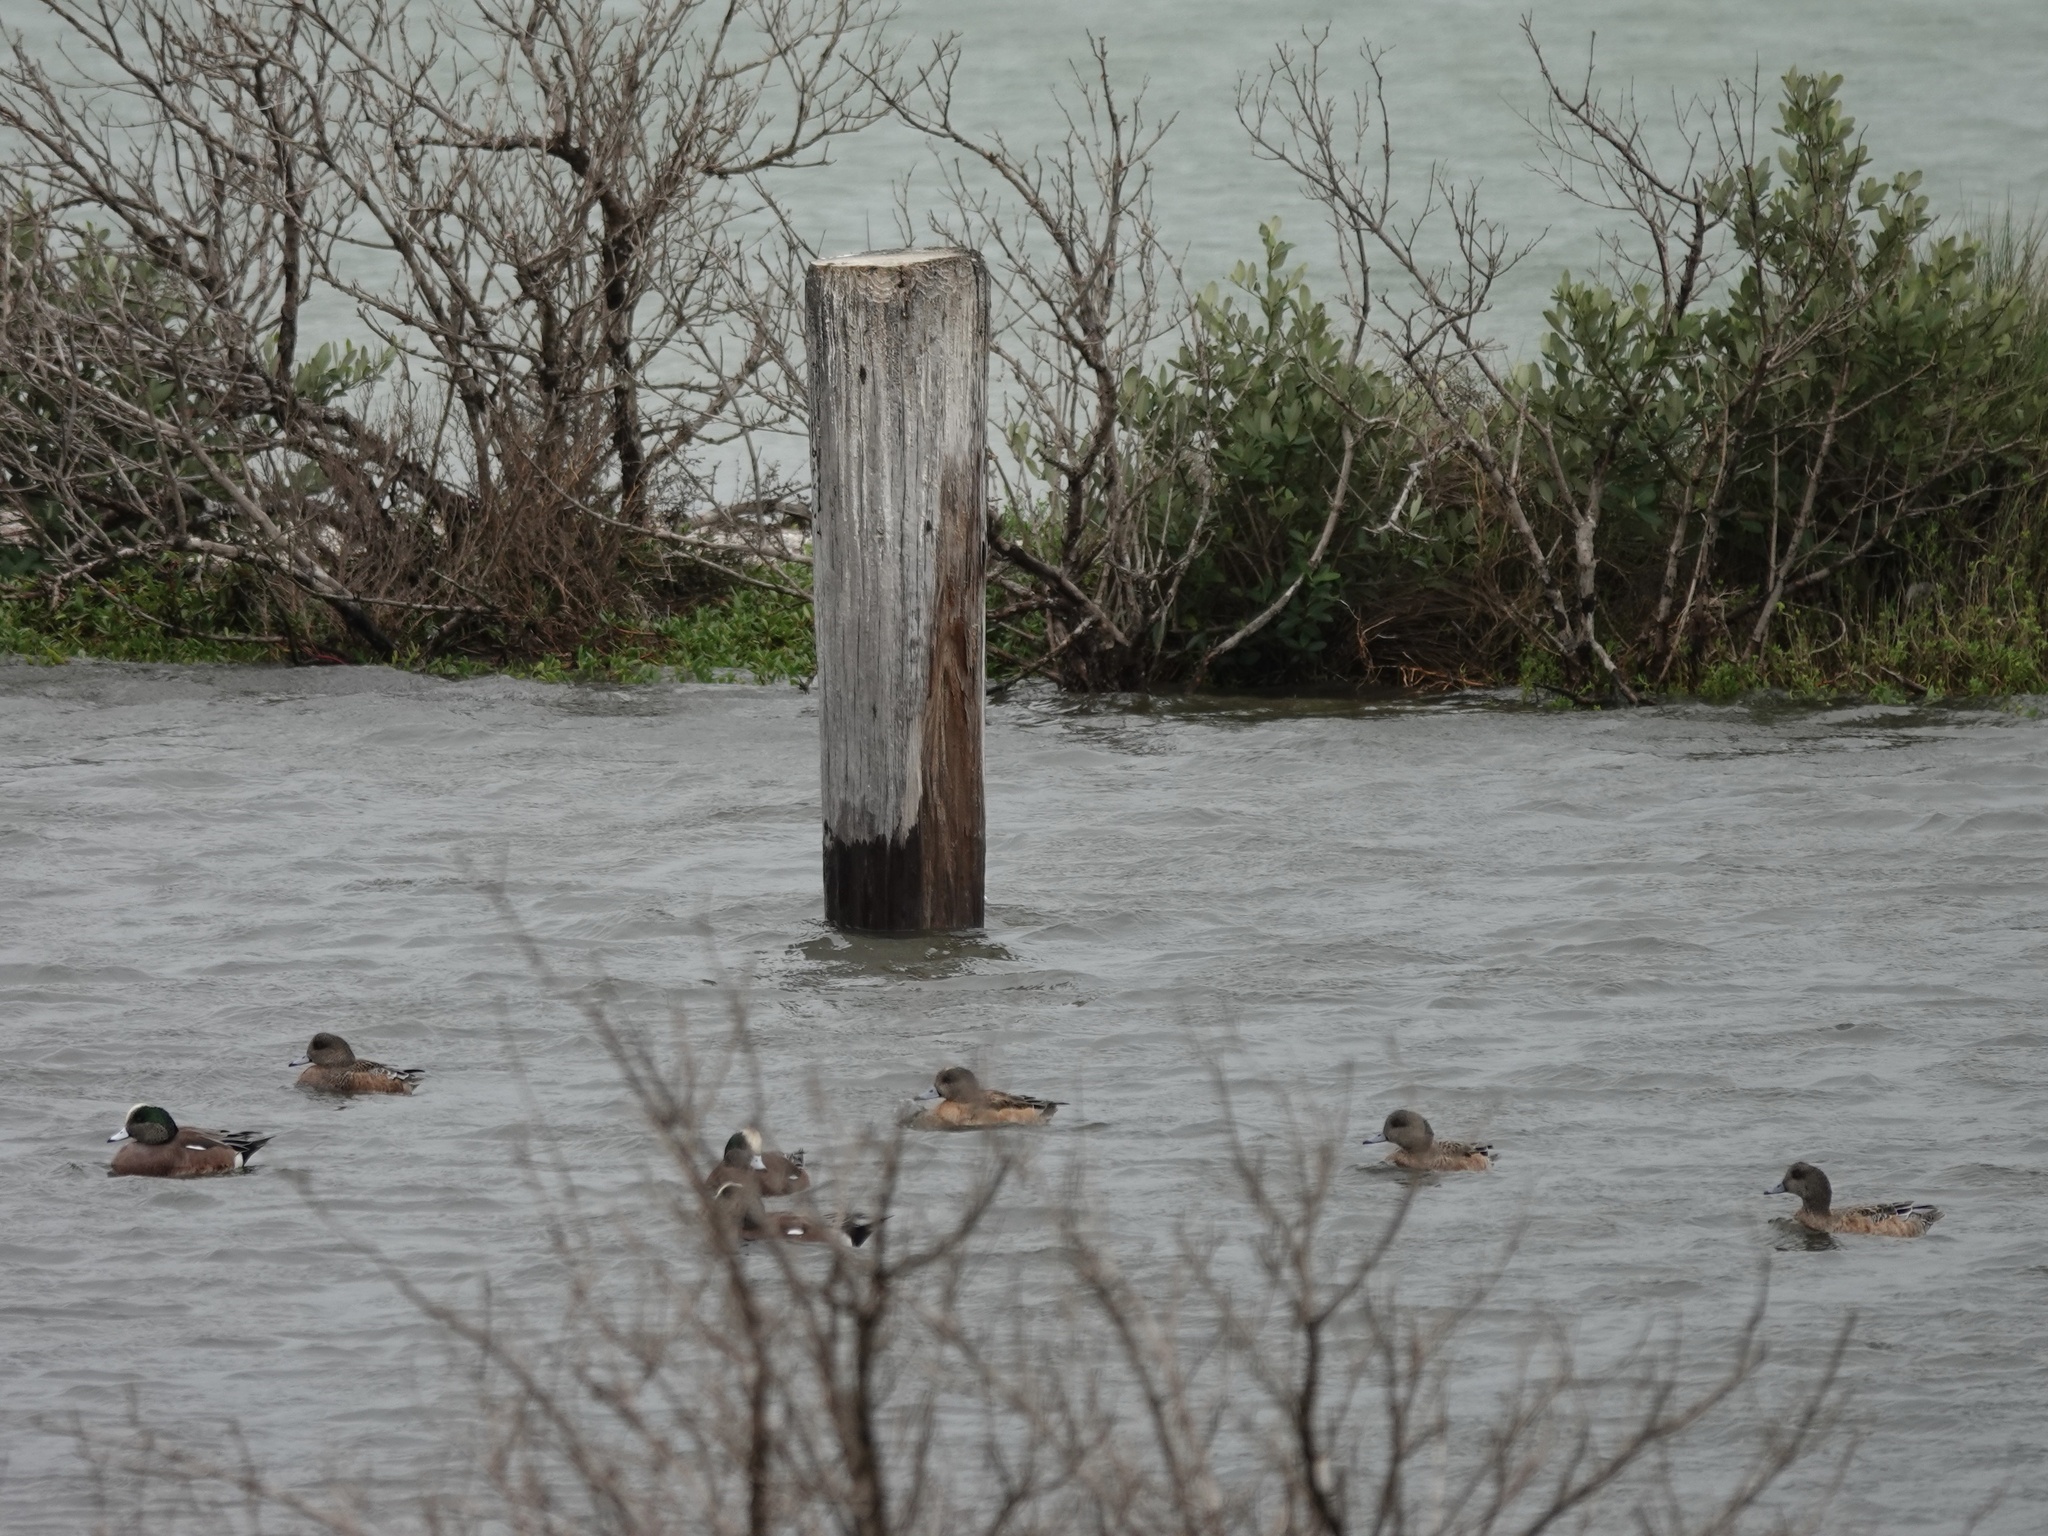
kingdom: Animalia
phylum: Chordata
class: Aves
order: Anseriformes
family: Anatidae
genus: Mareca
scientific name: Mareca americana
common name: American wigeon
